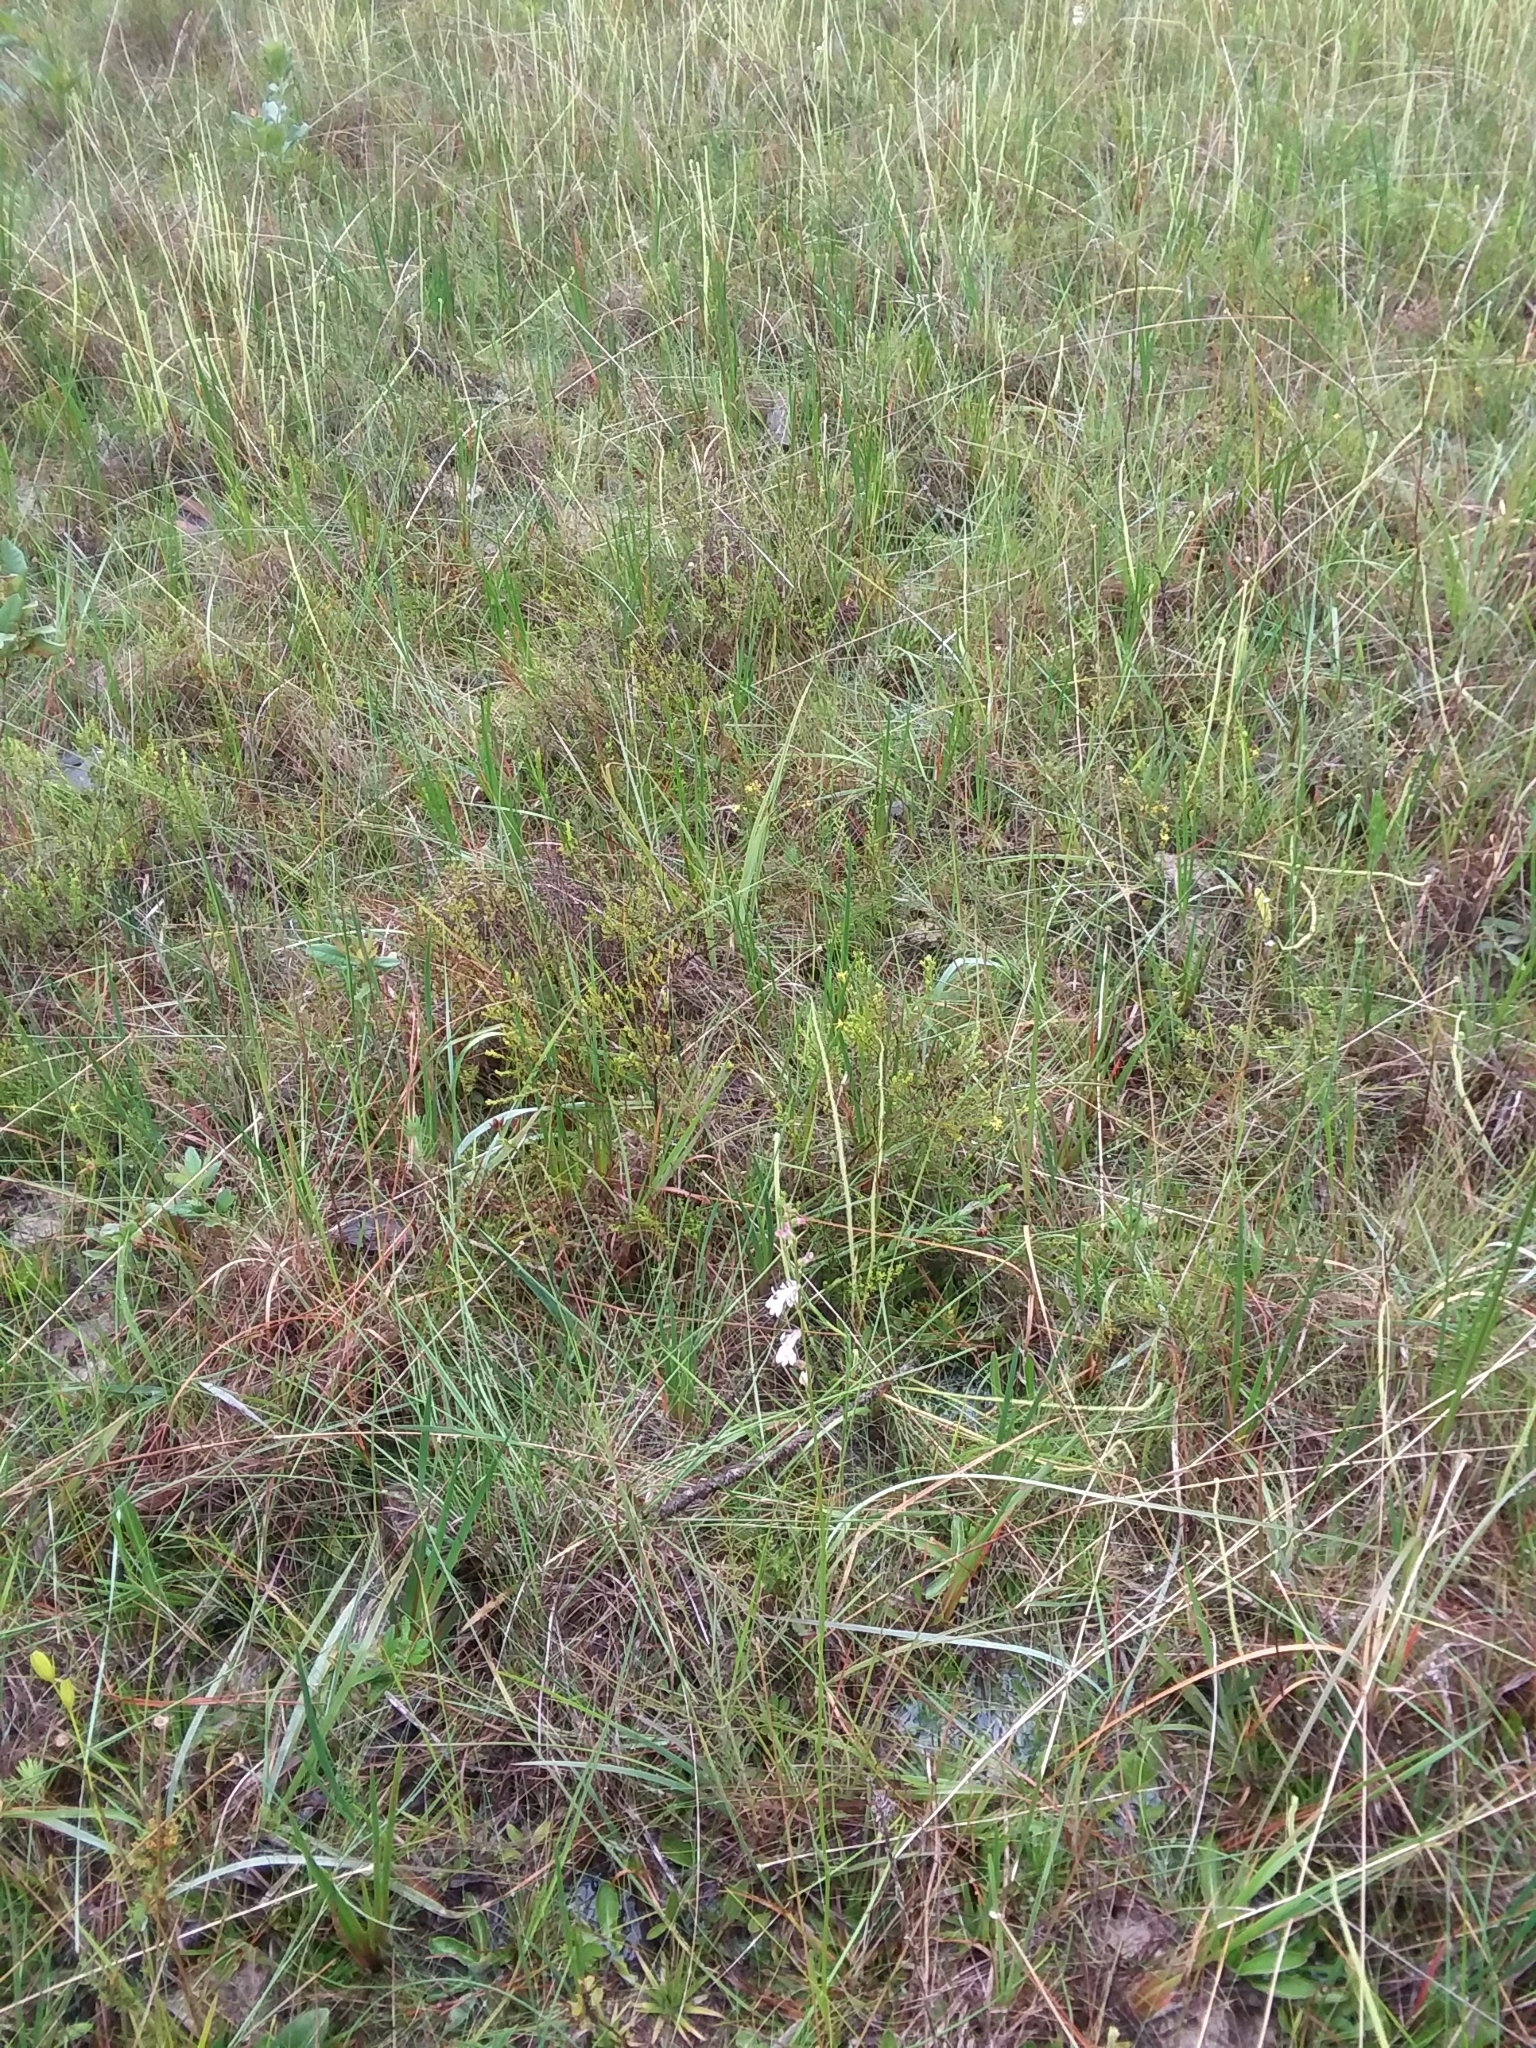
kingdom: Plantae
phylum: Tracheophyta
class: Magnoliopsida
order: Asterales
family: Campanulaceae
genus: Lobelia
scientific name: Lobelia floridana
